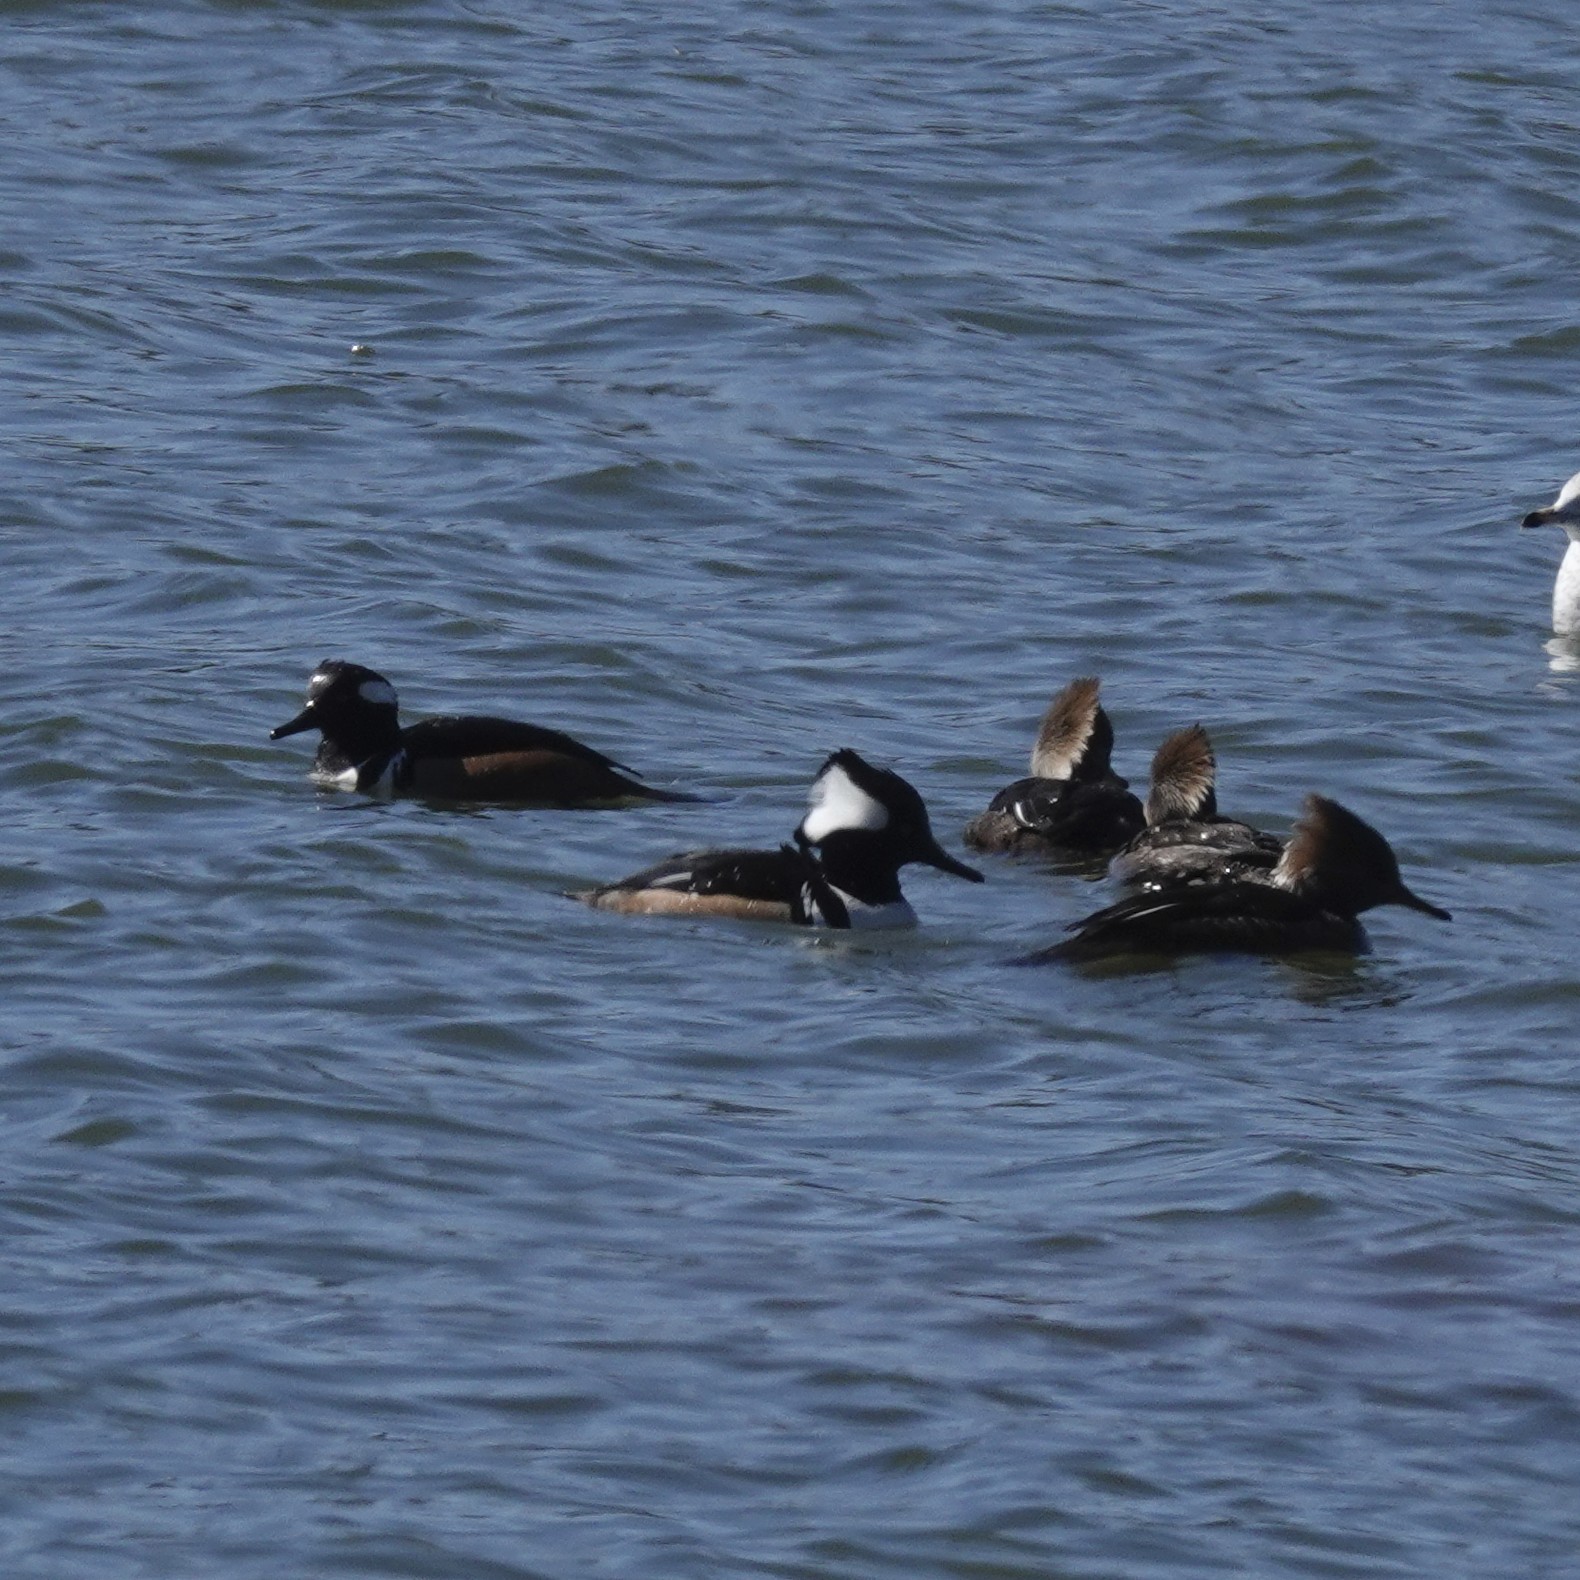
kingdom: Animalia
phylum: Chordata
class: Aves
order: Anseriformes
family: Anatidae
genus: Lophodytes
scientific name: Lophodytes cucullatus
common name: Hooded merganser
